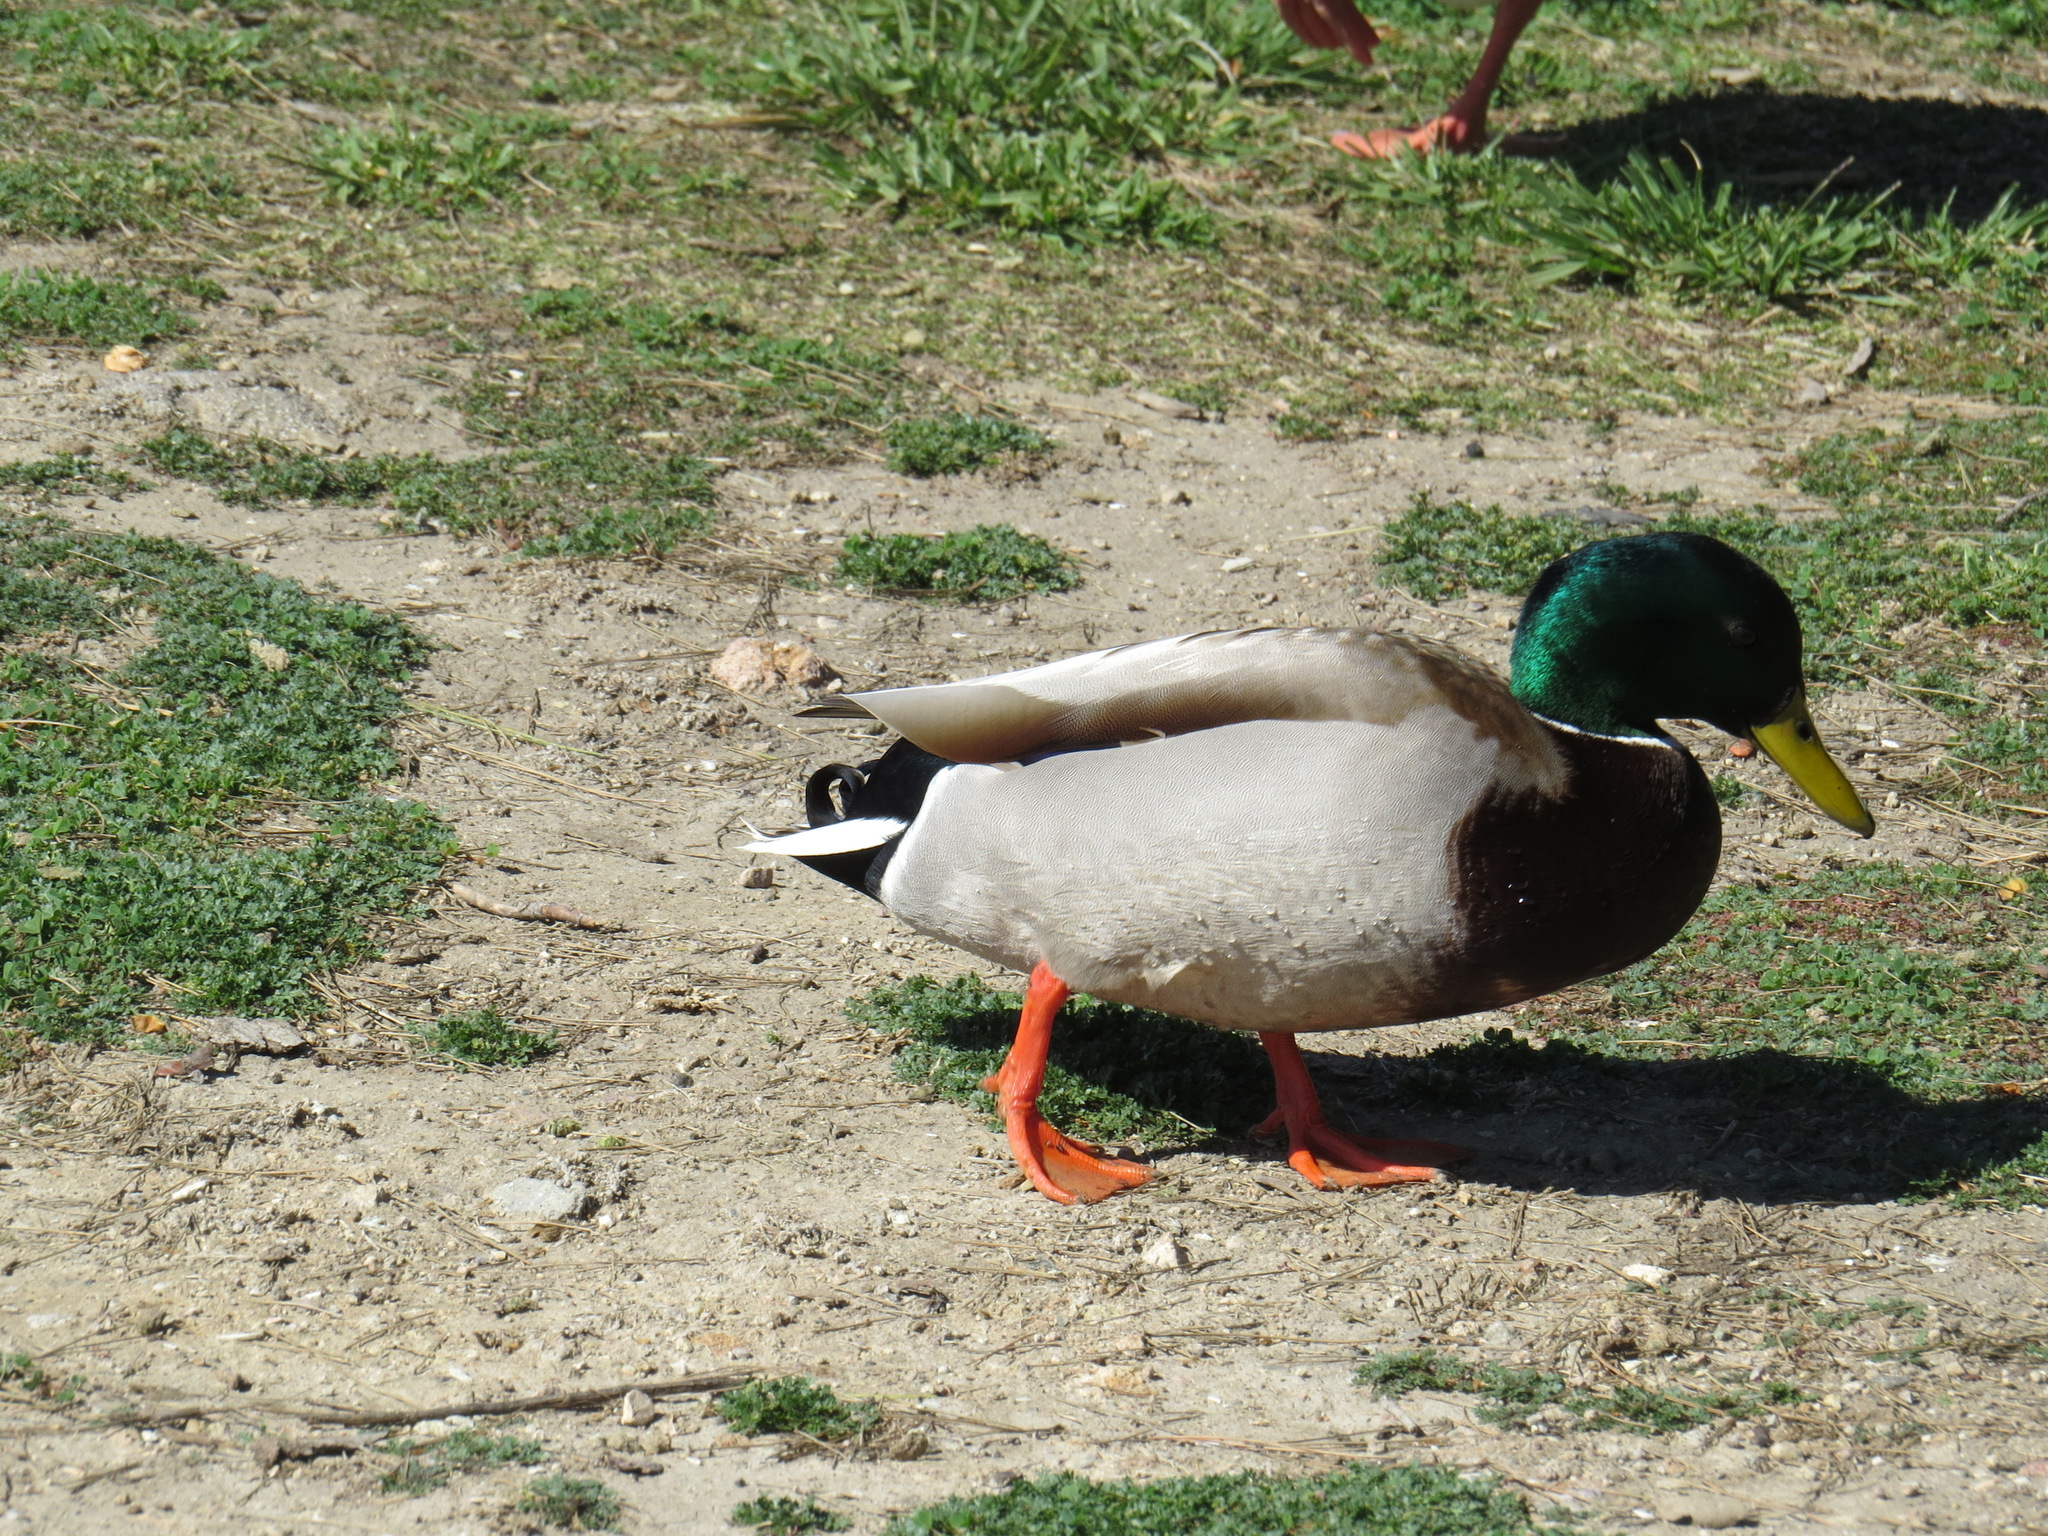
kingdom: Animalia
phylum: Chordata
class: Aves
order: Anseriformes
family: Anatidae
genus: Anas
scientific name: Anas platyrhynchos
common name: Mallard
